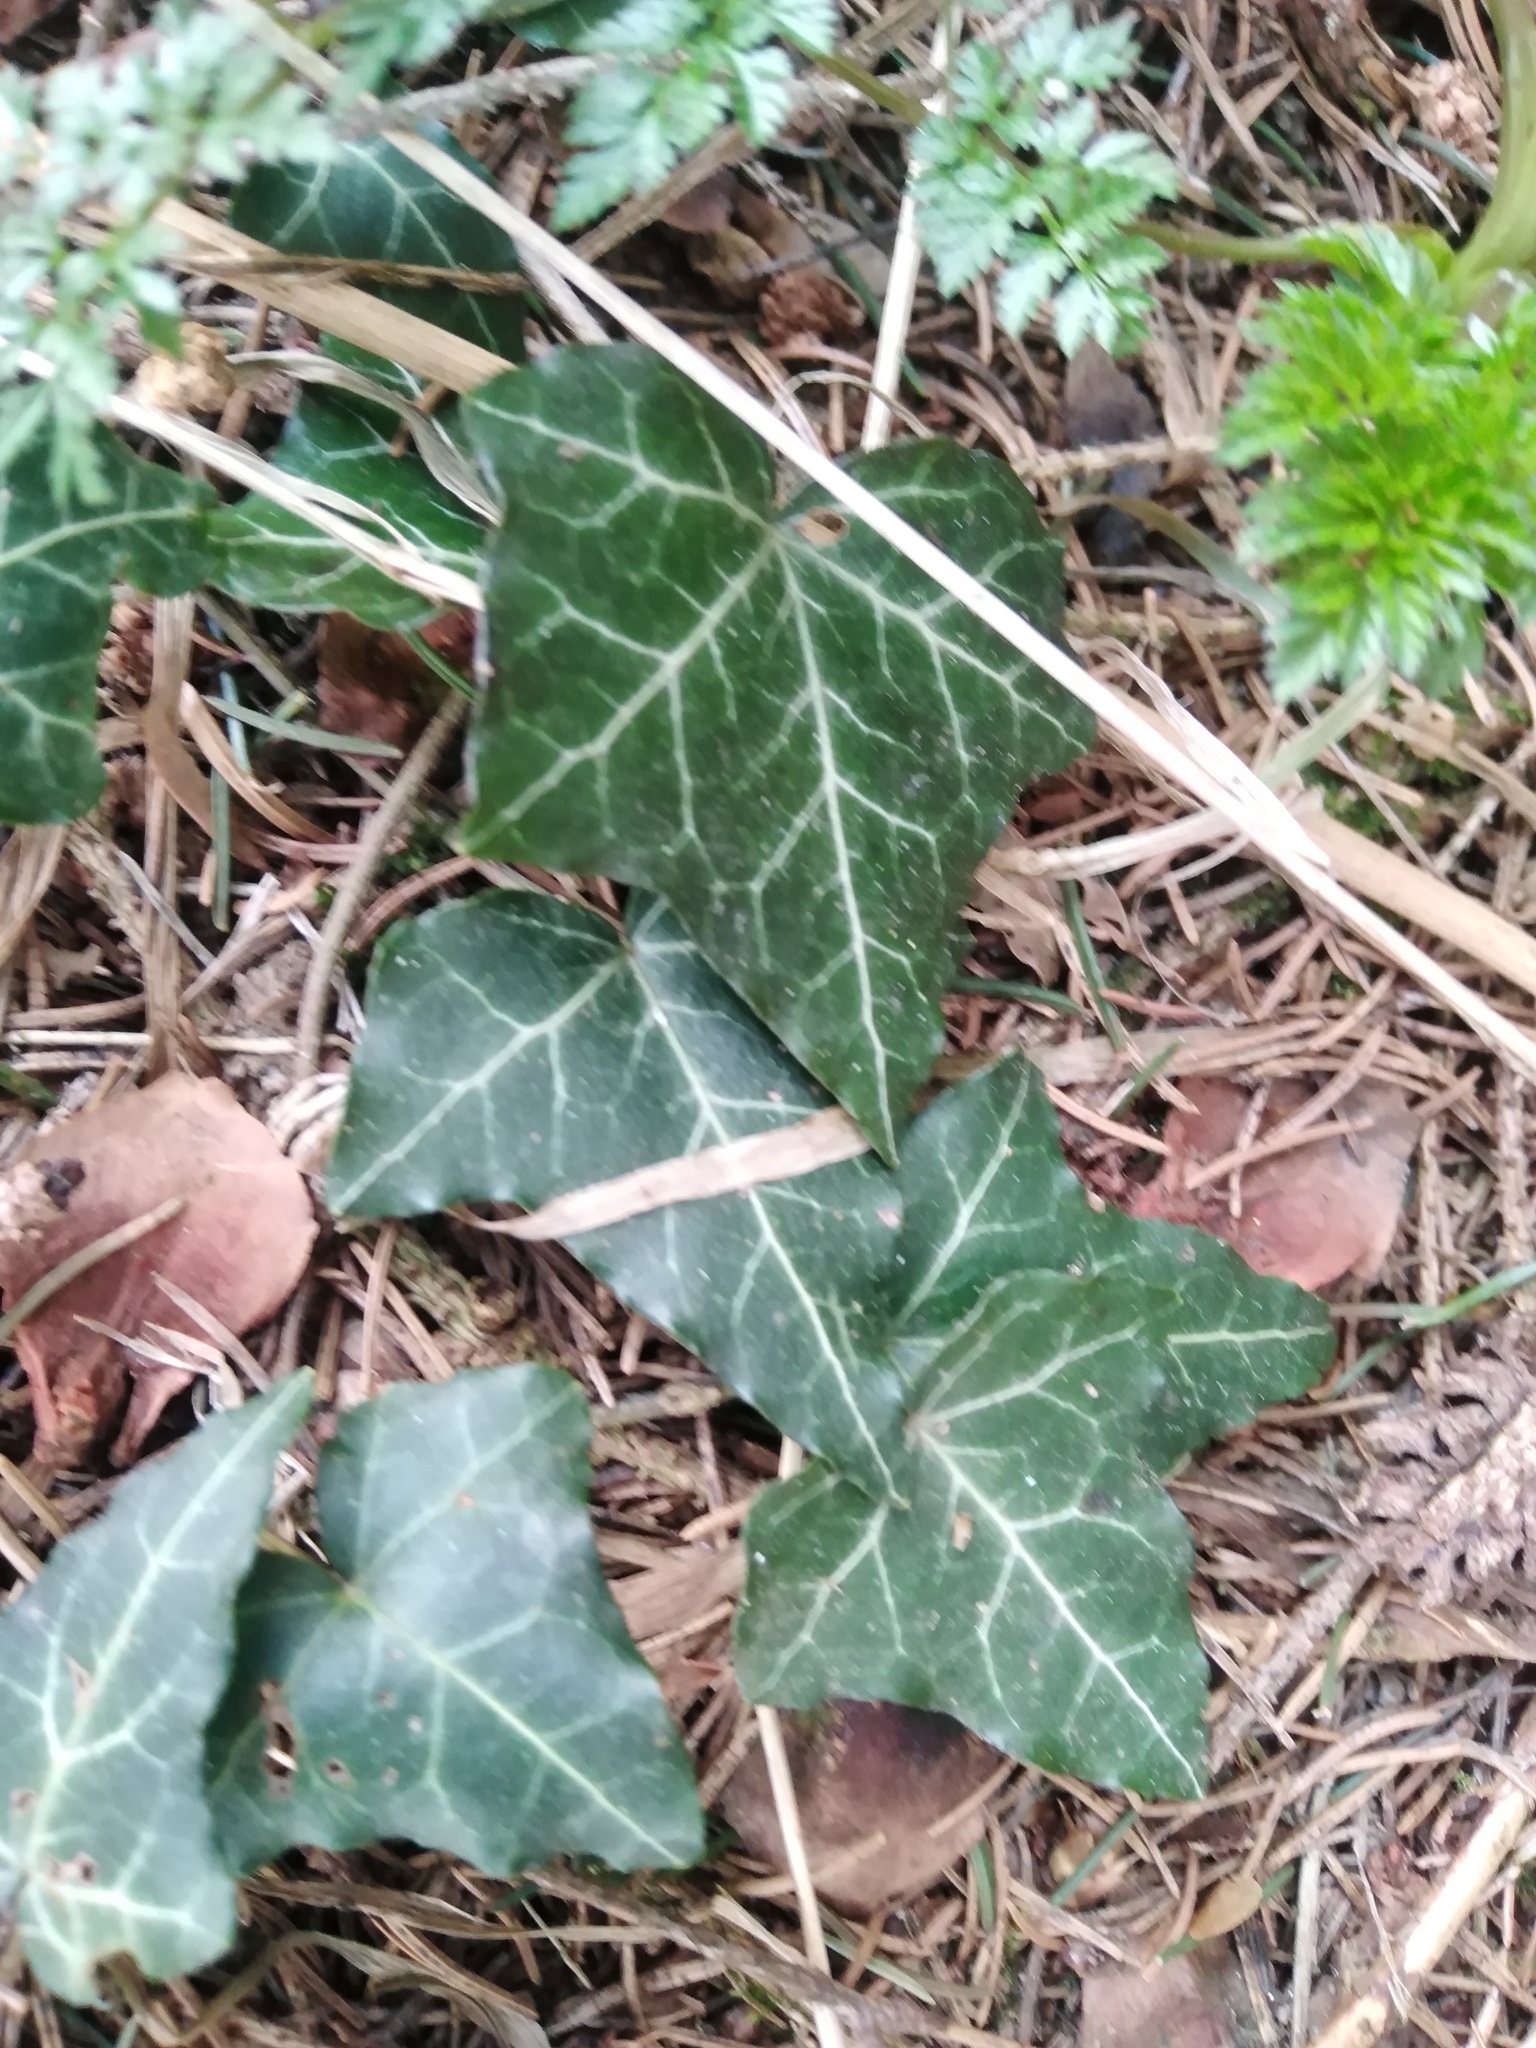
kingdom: Plantae
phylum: Tracheophyta
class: Magnoliopsida
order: Apiales
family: Araliaceae
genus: Hedera
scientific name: Hedera helix
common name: Ivy
